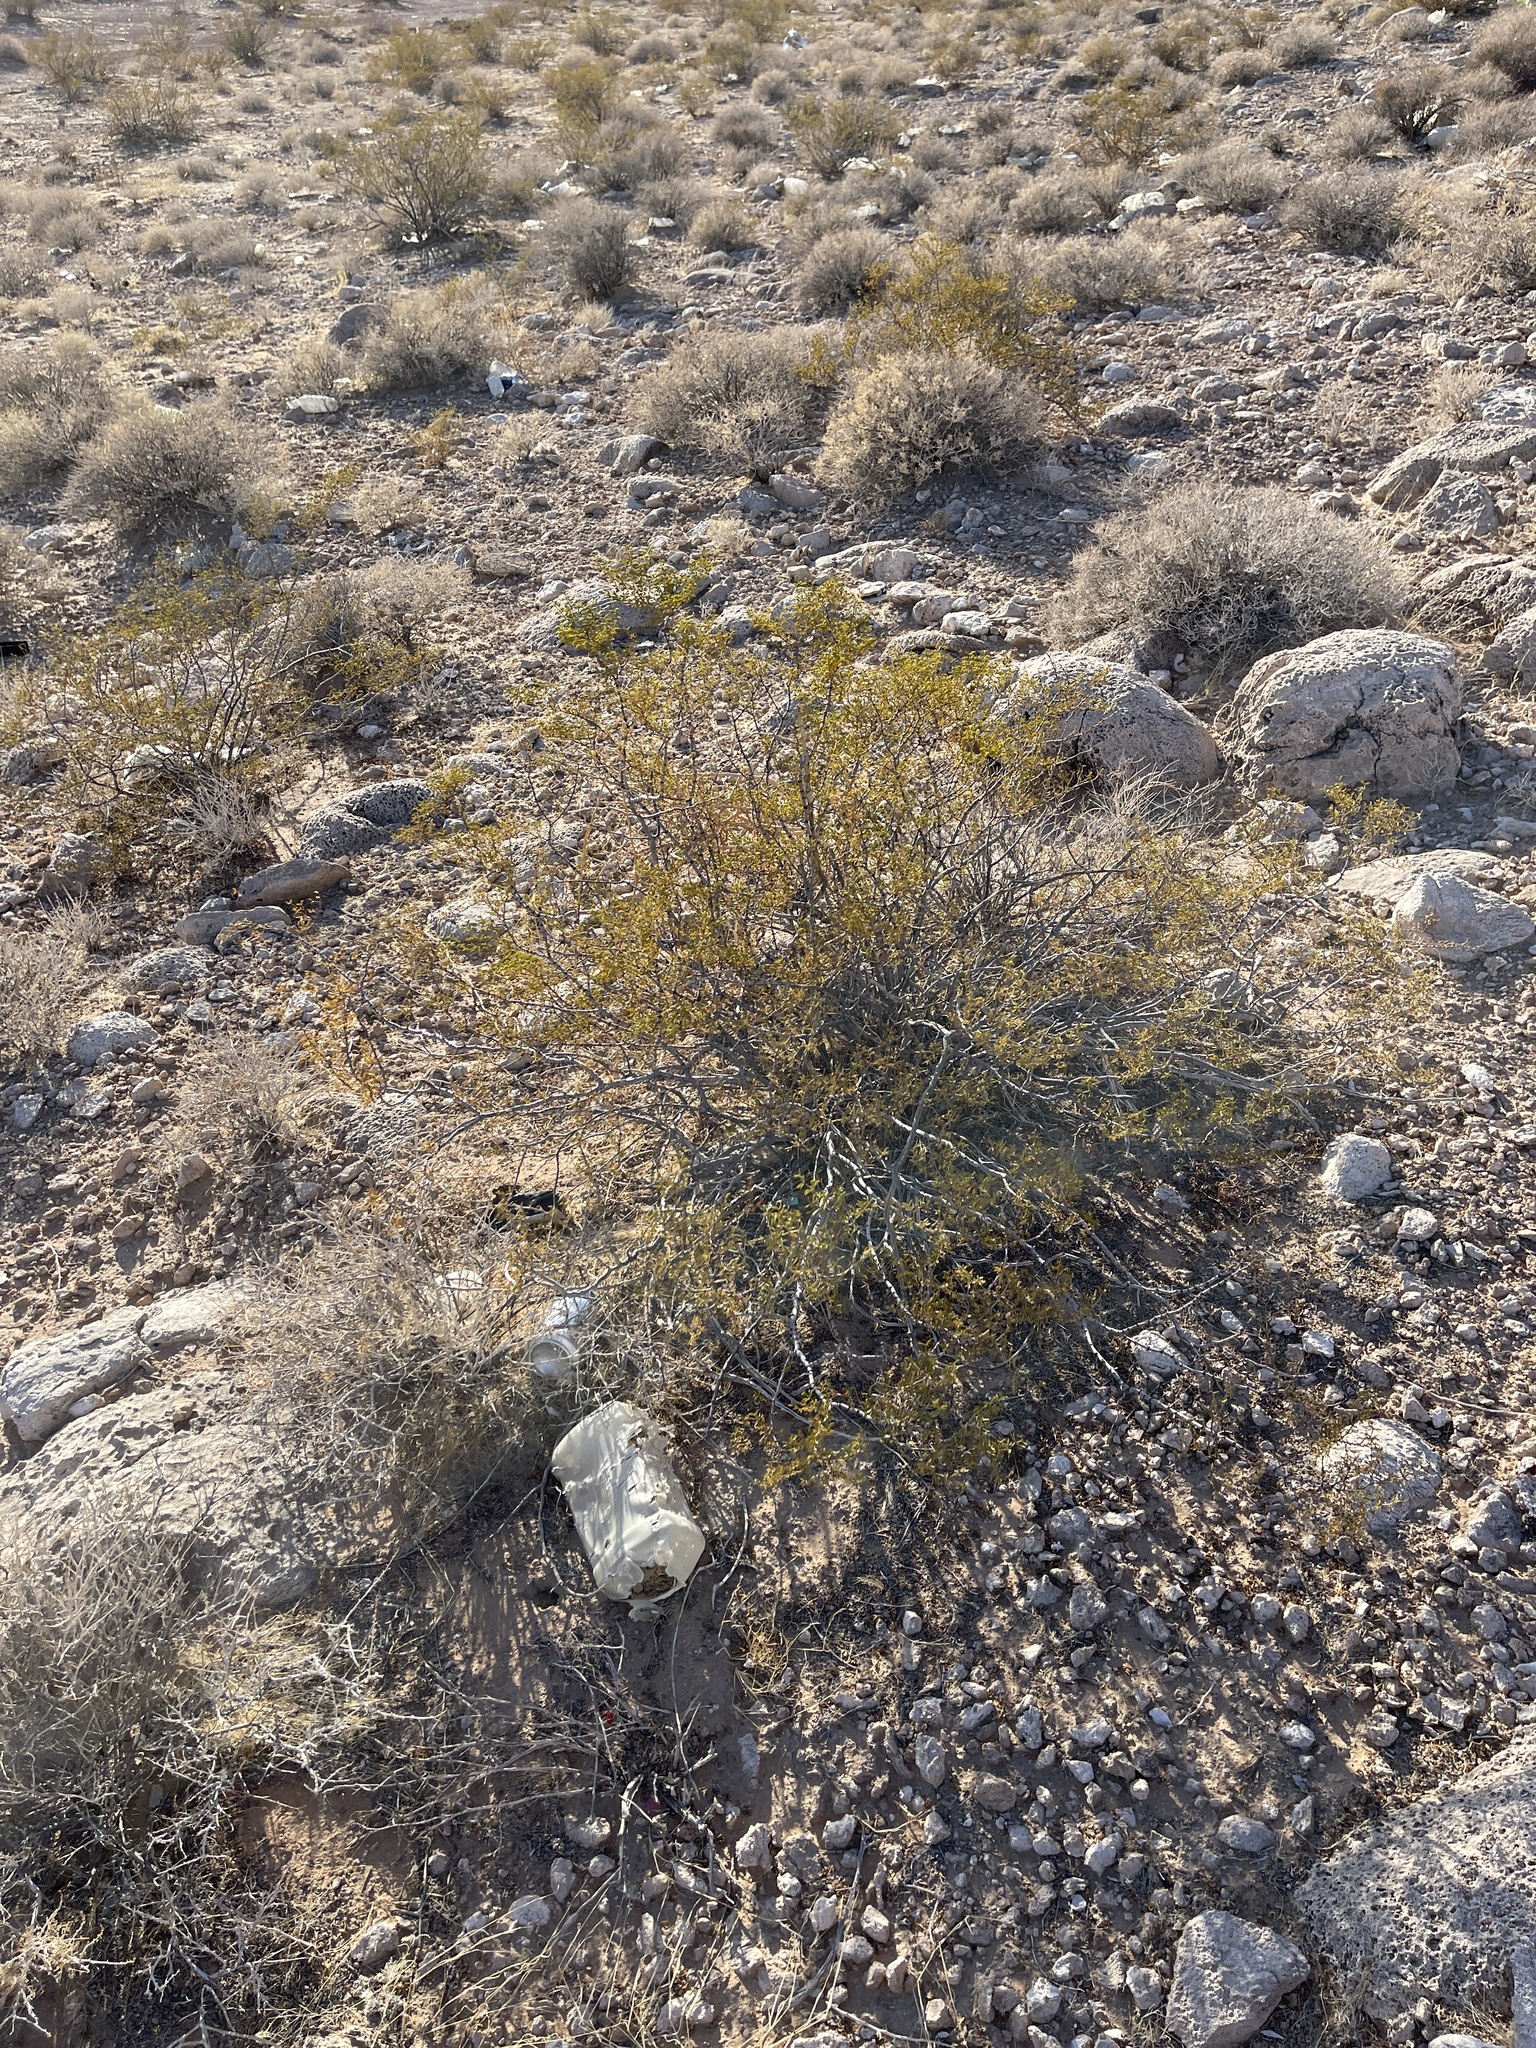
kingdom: Plantae
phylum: Tracheophyta
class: Magnoliopsida
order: Zygophyllales
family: Zygophyllaceae
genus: Larrea
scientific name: Larrea tridentata
